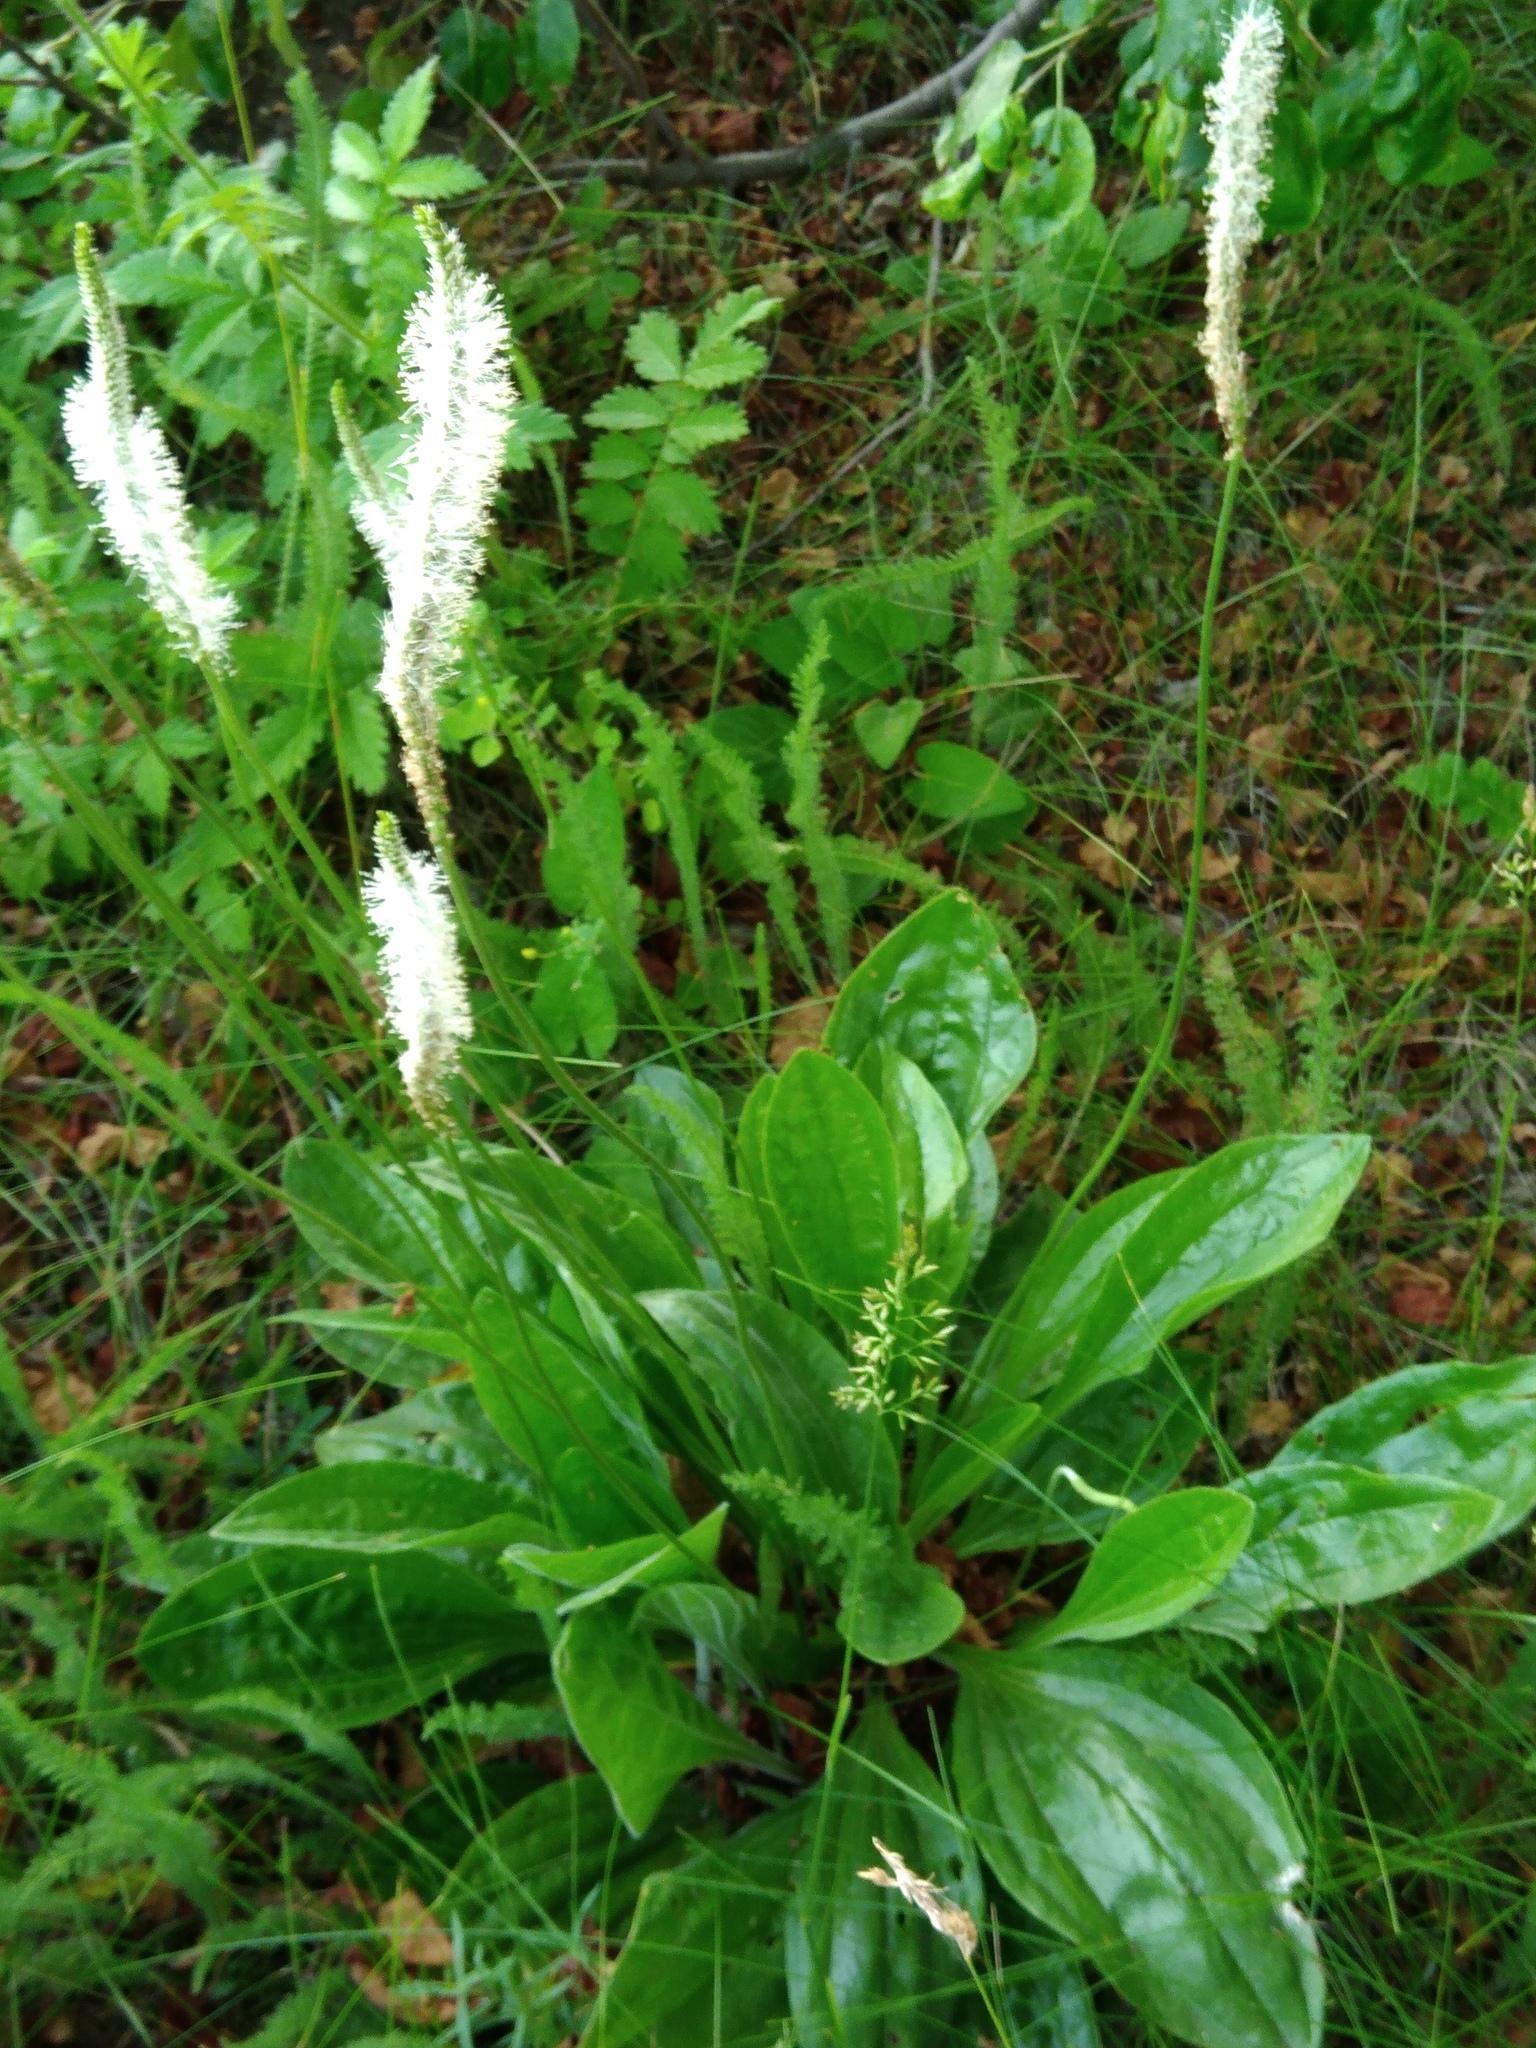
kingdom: Plantae
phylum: Tracheophyta
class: Magnoliopsida
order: Lamiales
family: Plantaginaceae
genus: Plantago
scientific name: Plantago urvillei
